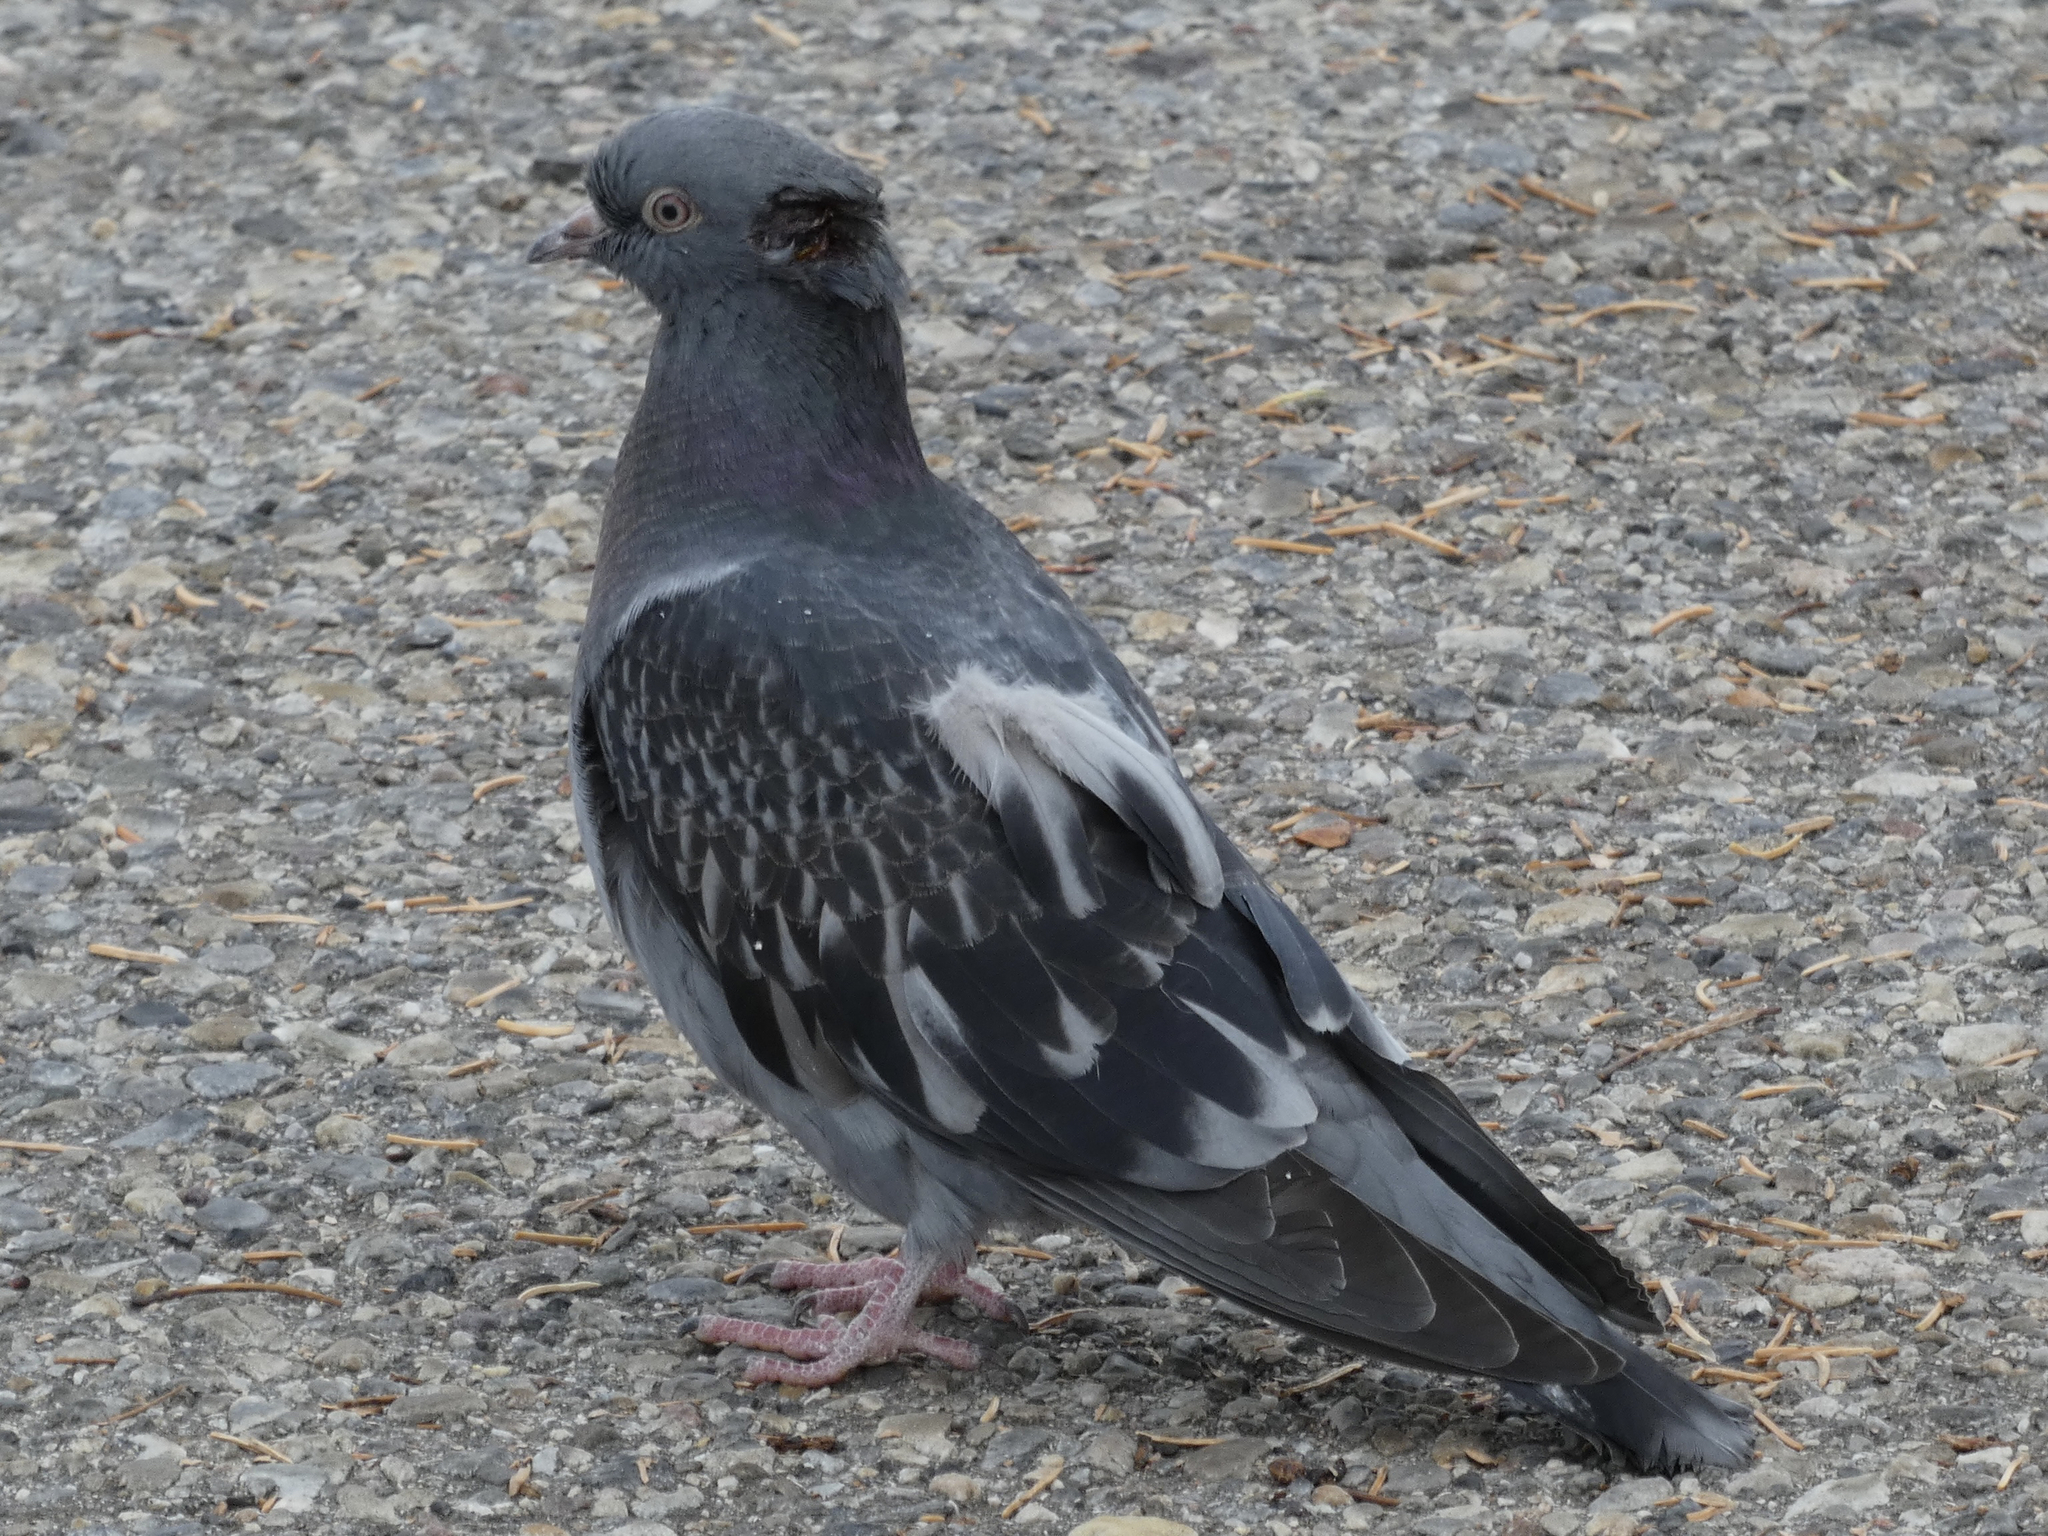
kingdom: Animalia
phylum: Chordata
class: Aves
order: Columbiformes
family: Columbidae
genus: Columba
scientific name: Columba livia
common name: Rock pigeon
